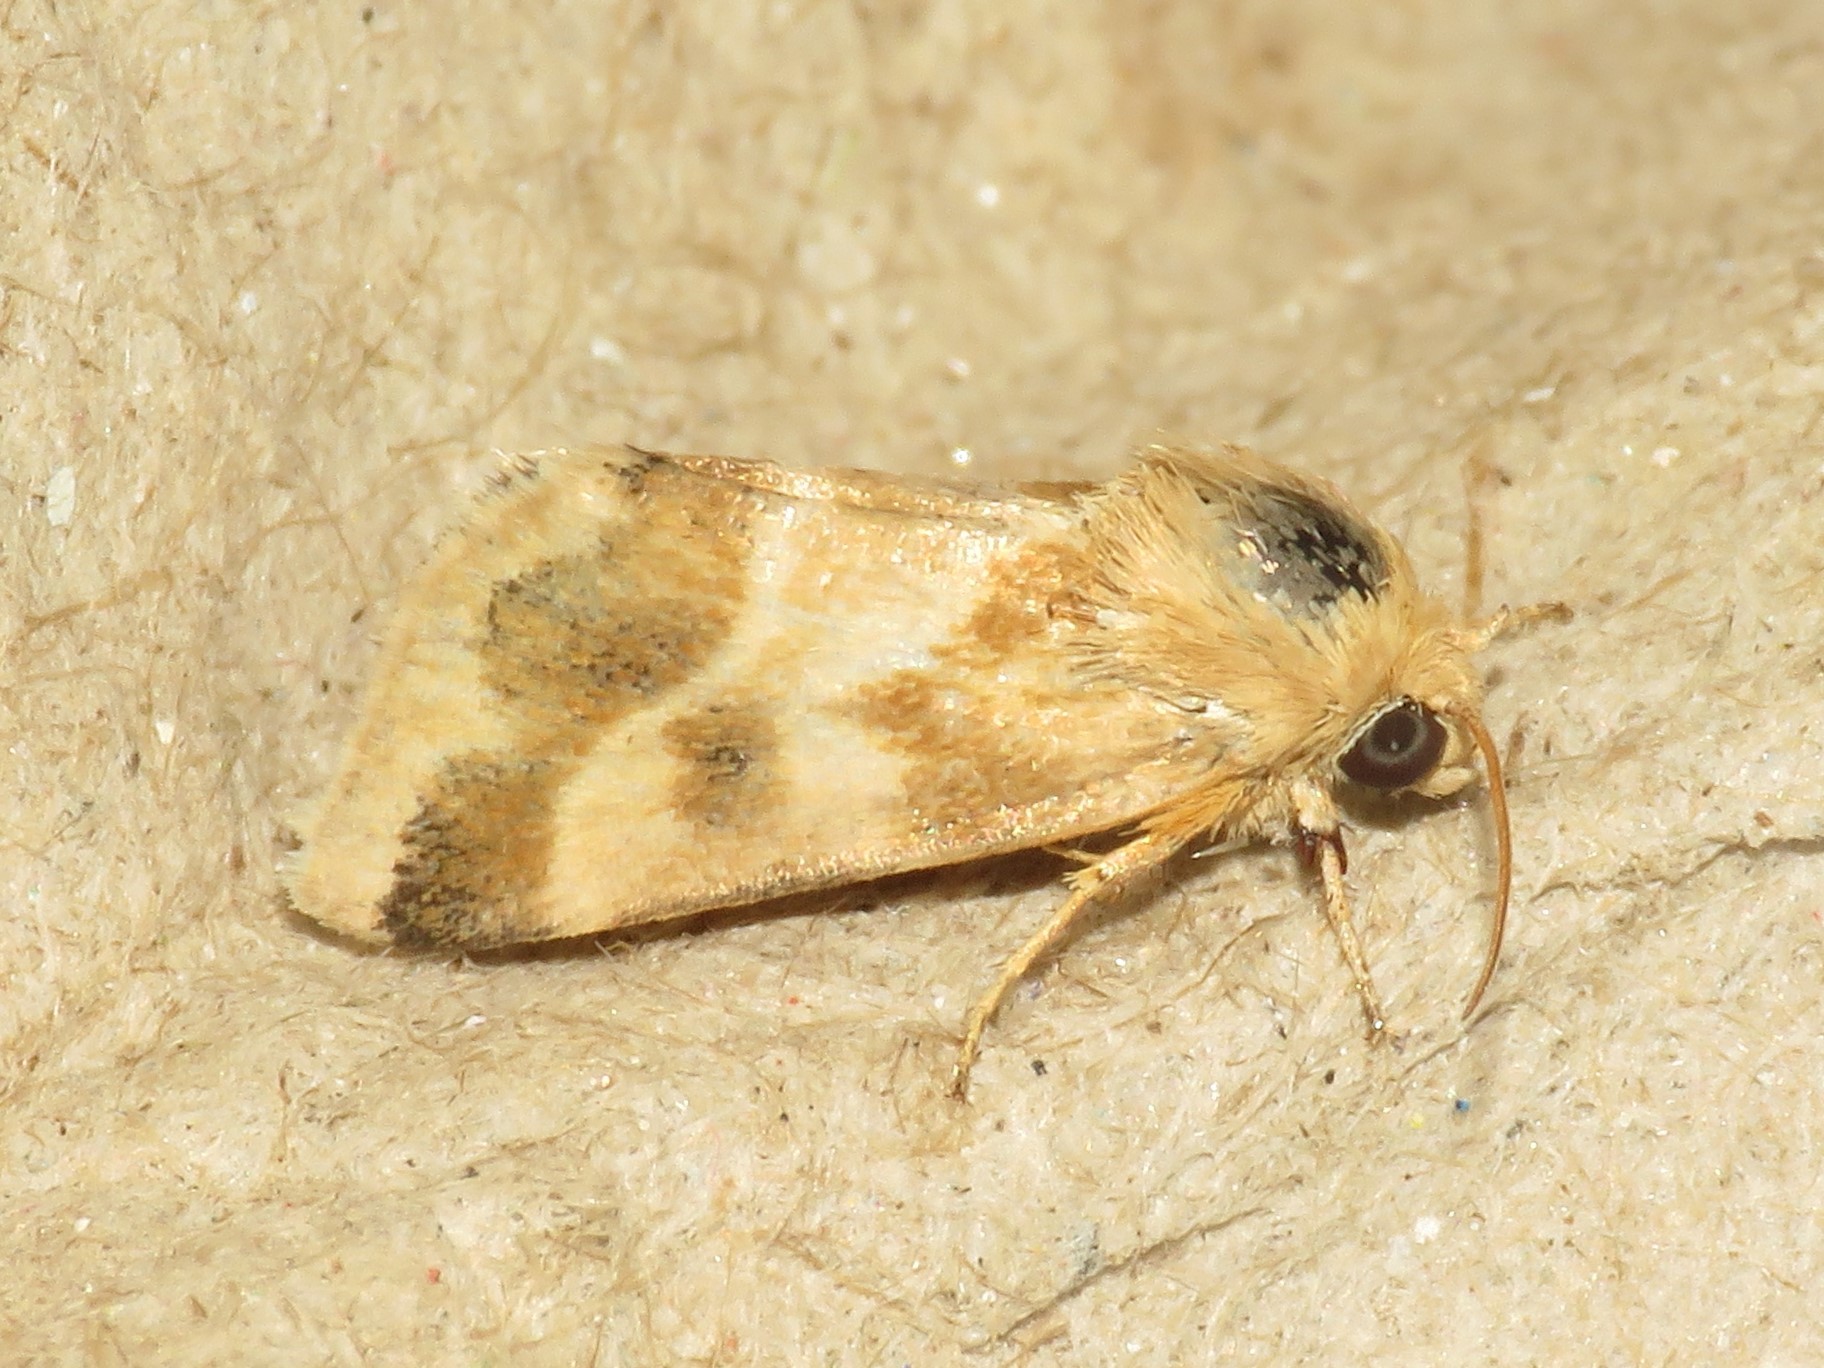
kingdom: Animalia
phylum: Arthropoda
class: Insecta
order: Lepidoptera
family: Noctuidae
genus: Schinia
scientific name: Schinia lynx
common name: Lynx flower moth
